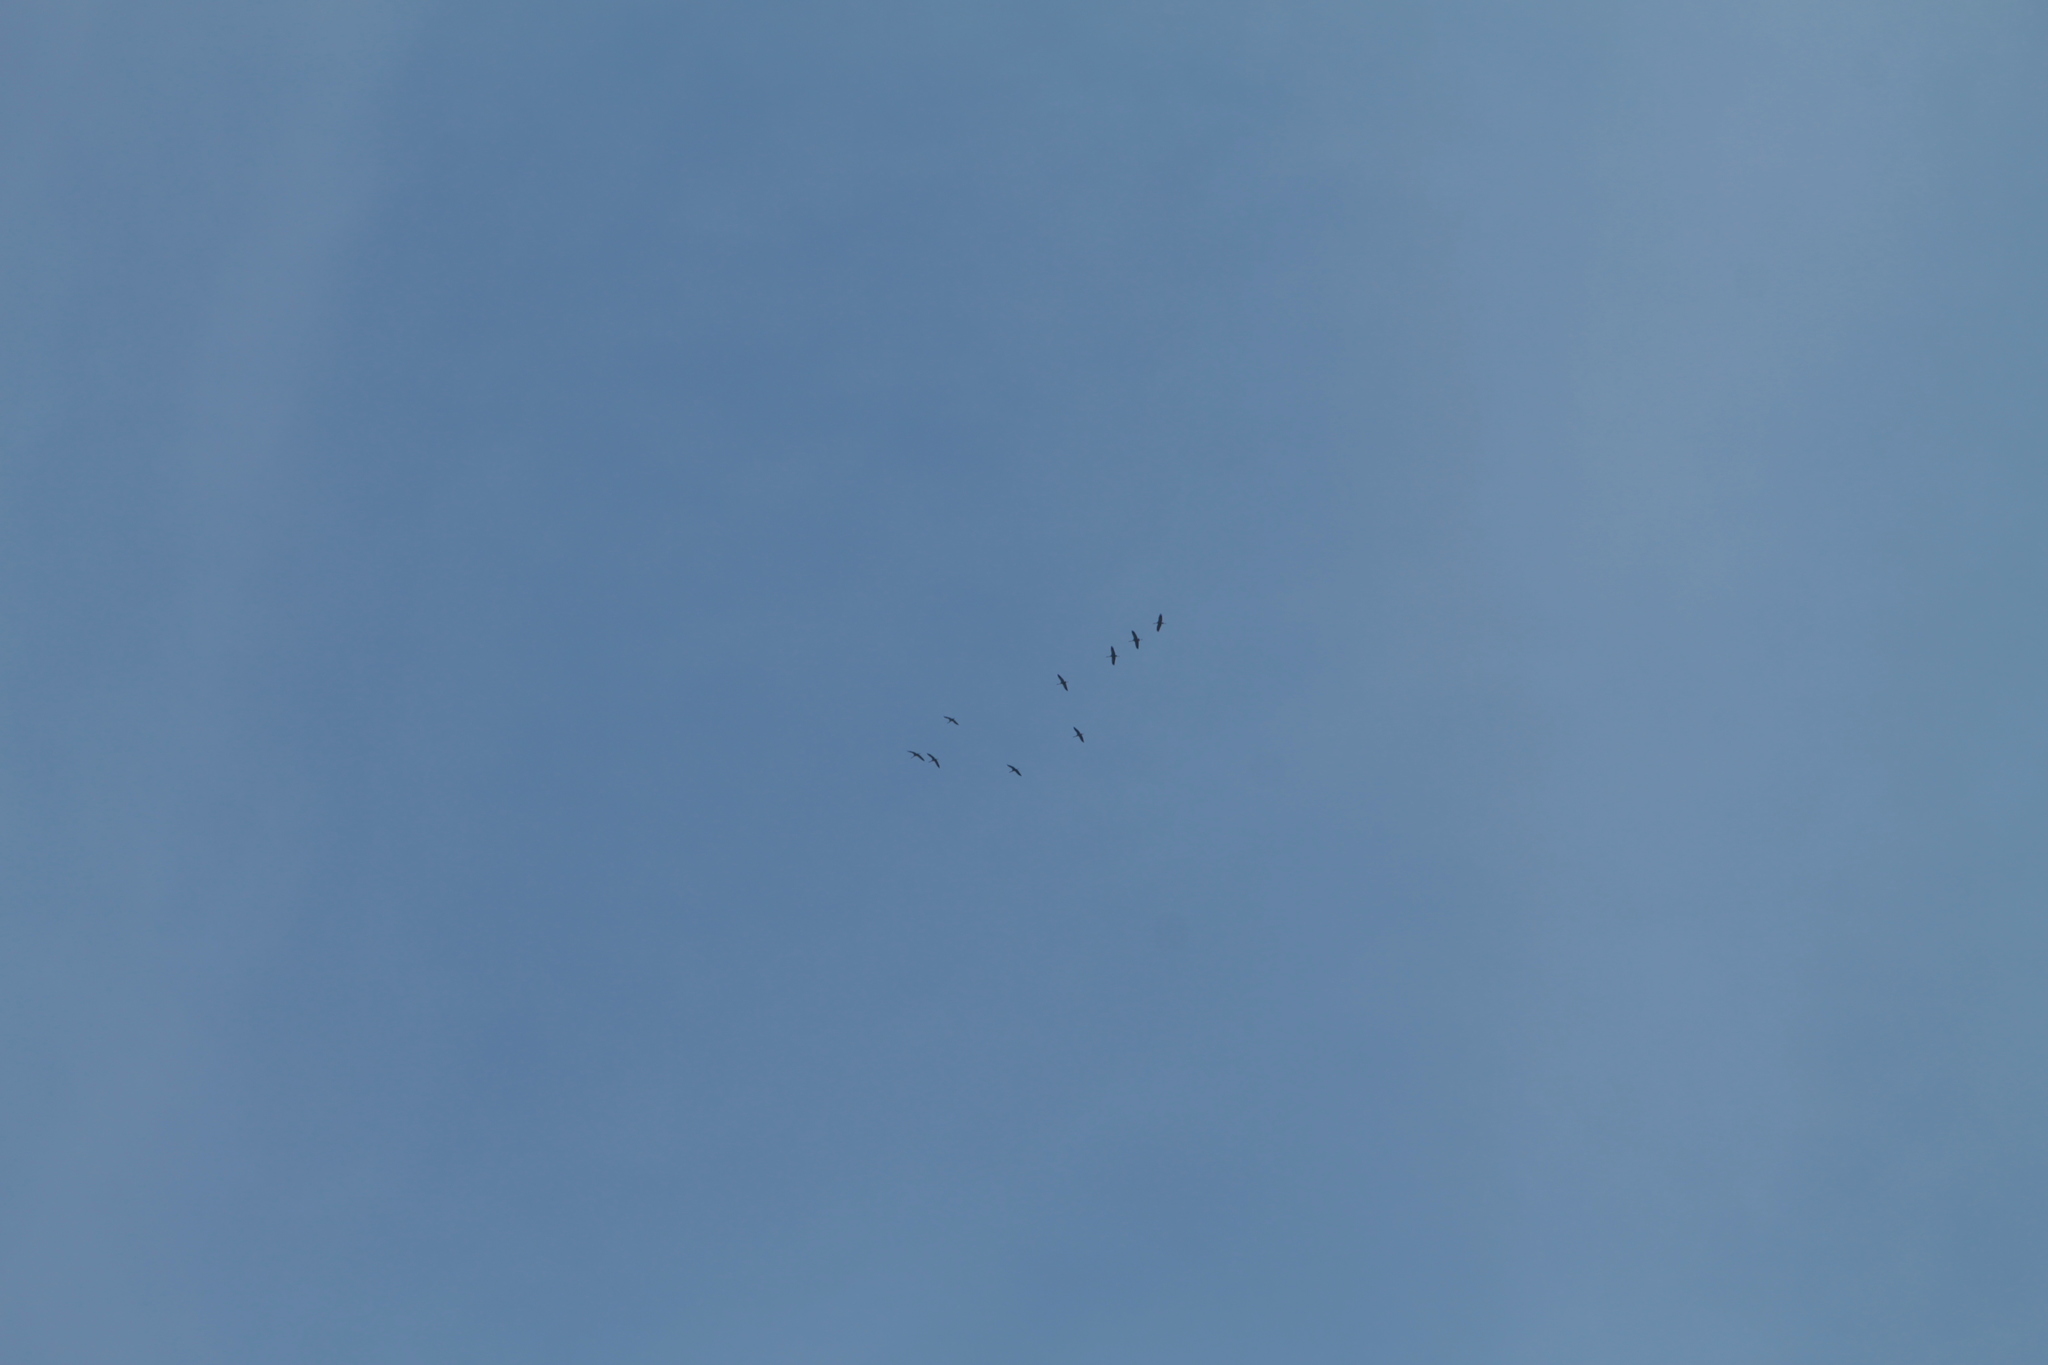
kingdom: Animalia
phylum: Chordata
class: Aves
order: Gruiformes
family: Gruidae
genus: Grus
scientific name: Grus grus
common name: Common crane
